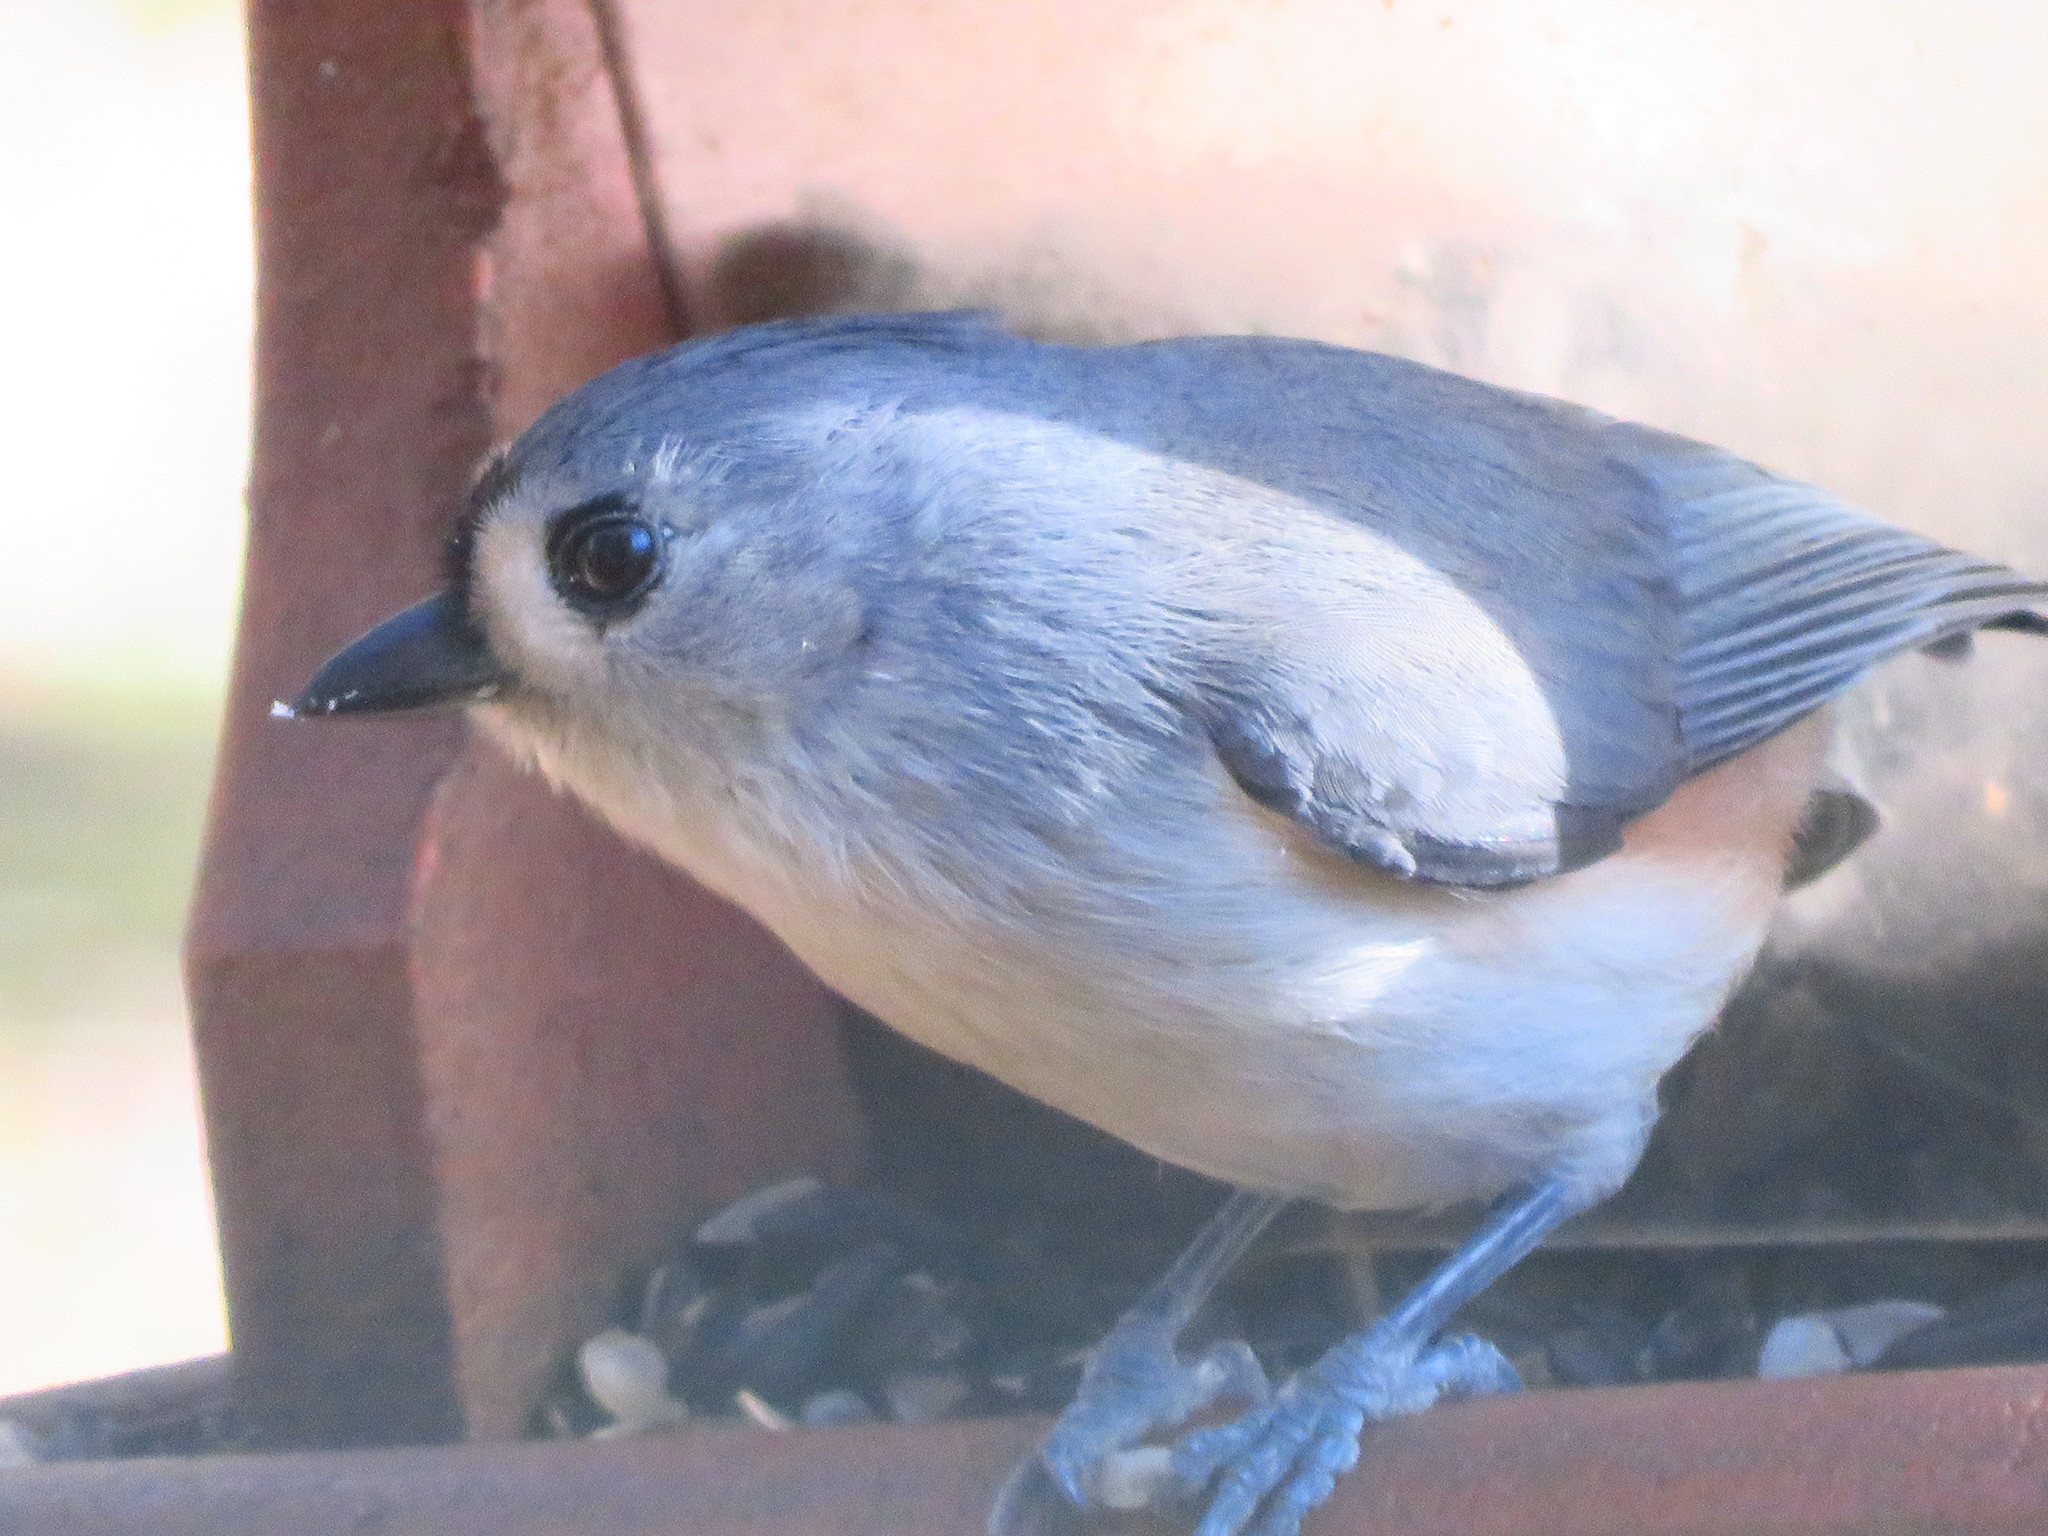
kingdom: Animalia
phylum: Chordata
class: Aves
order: Passeriformes
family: Paridae
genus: Baeolophus
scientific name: Baeolophus bicolor
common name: Tufted titmouse
